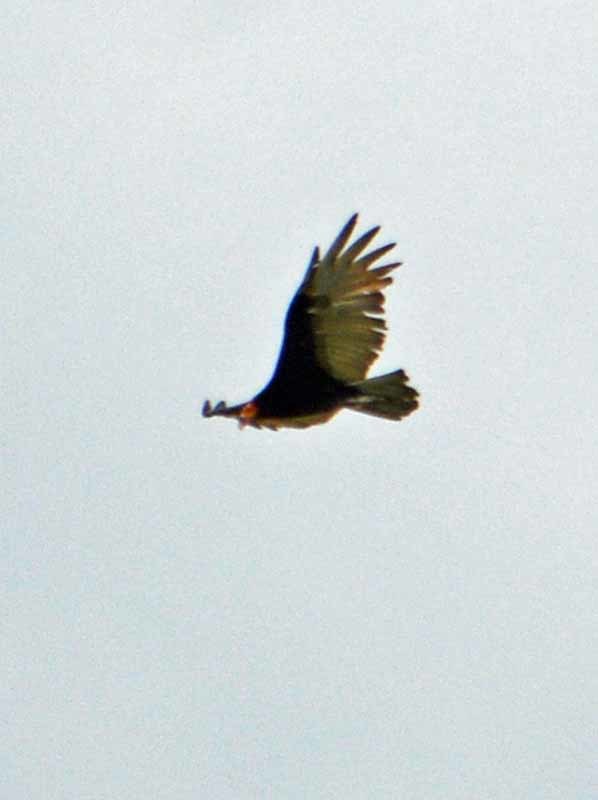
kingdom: Animalia
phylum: Chordata
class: Aves
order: Accipitriformes
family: Cathartidae
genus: Cathartes
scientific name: Cathartes aura
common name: Turkey vulture
